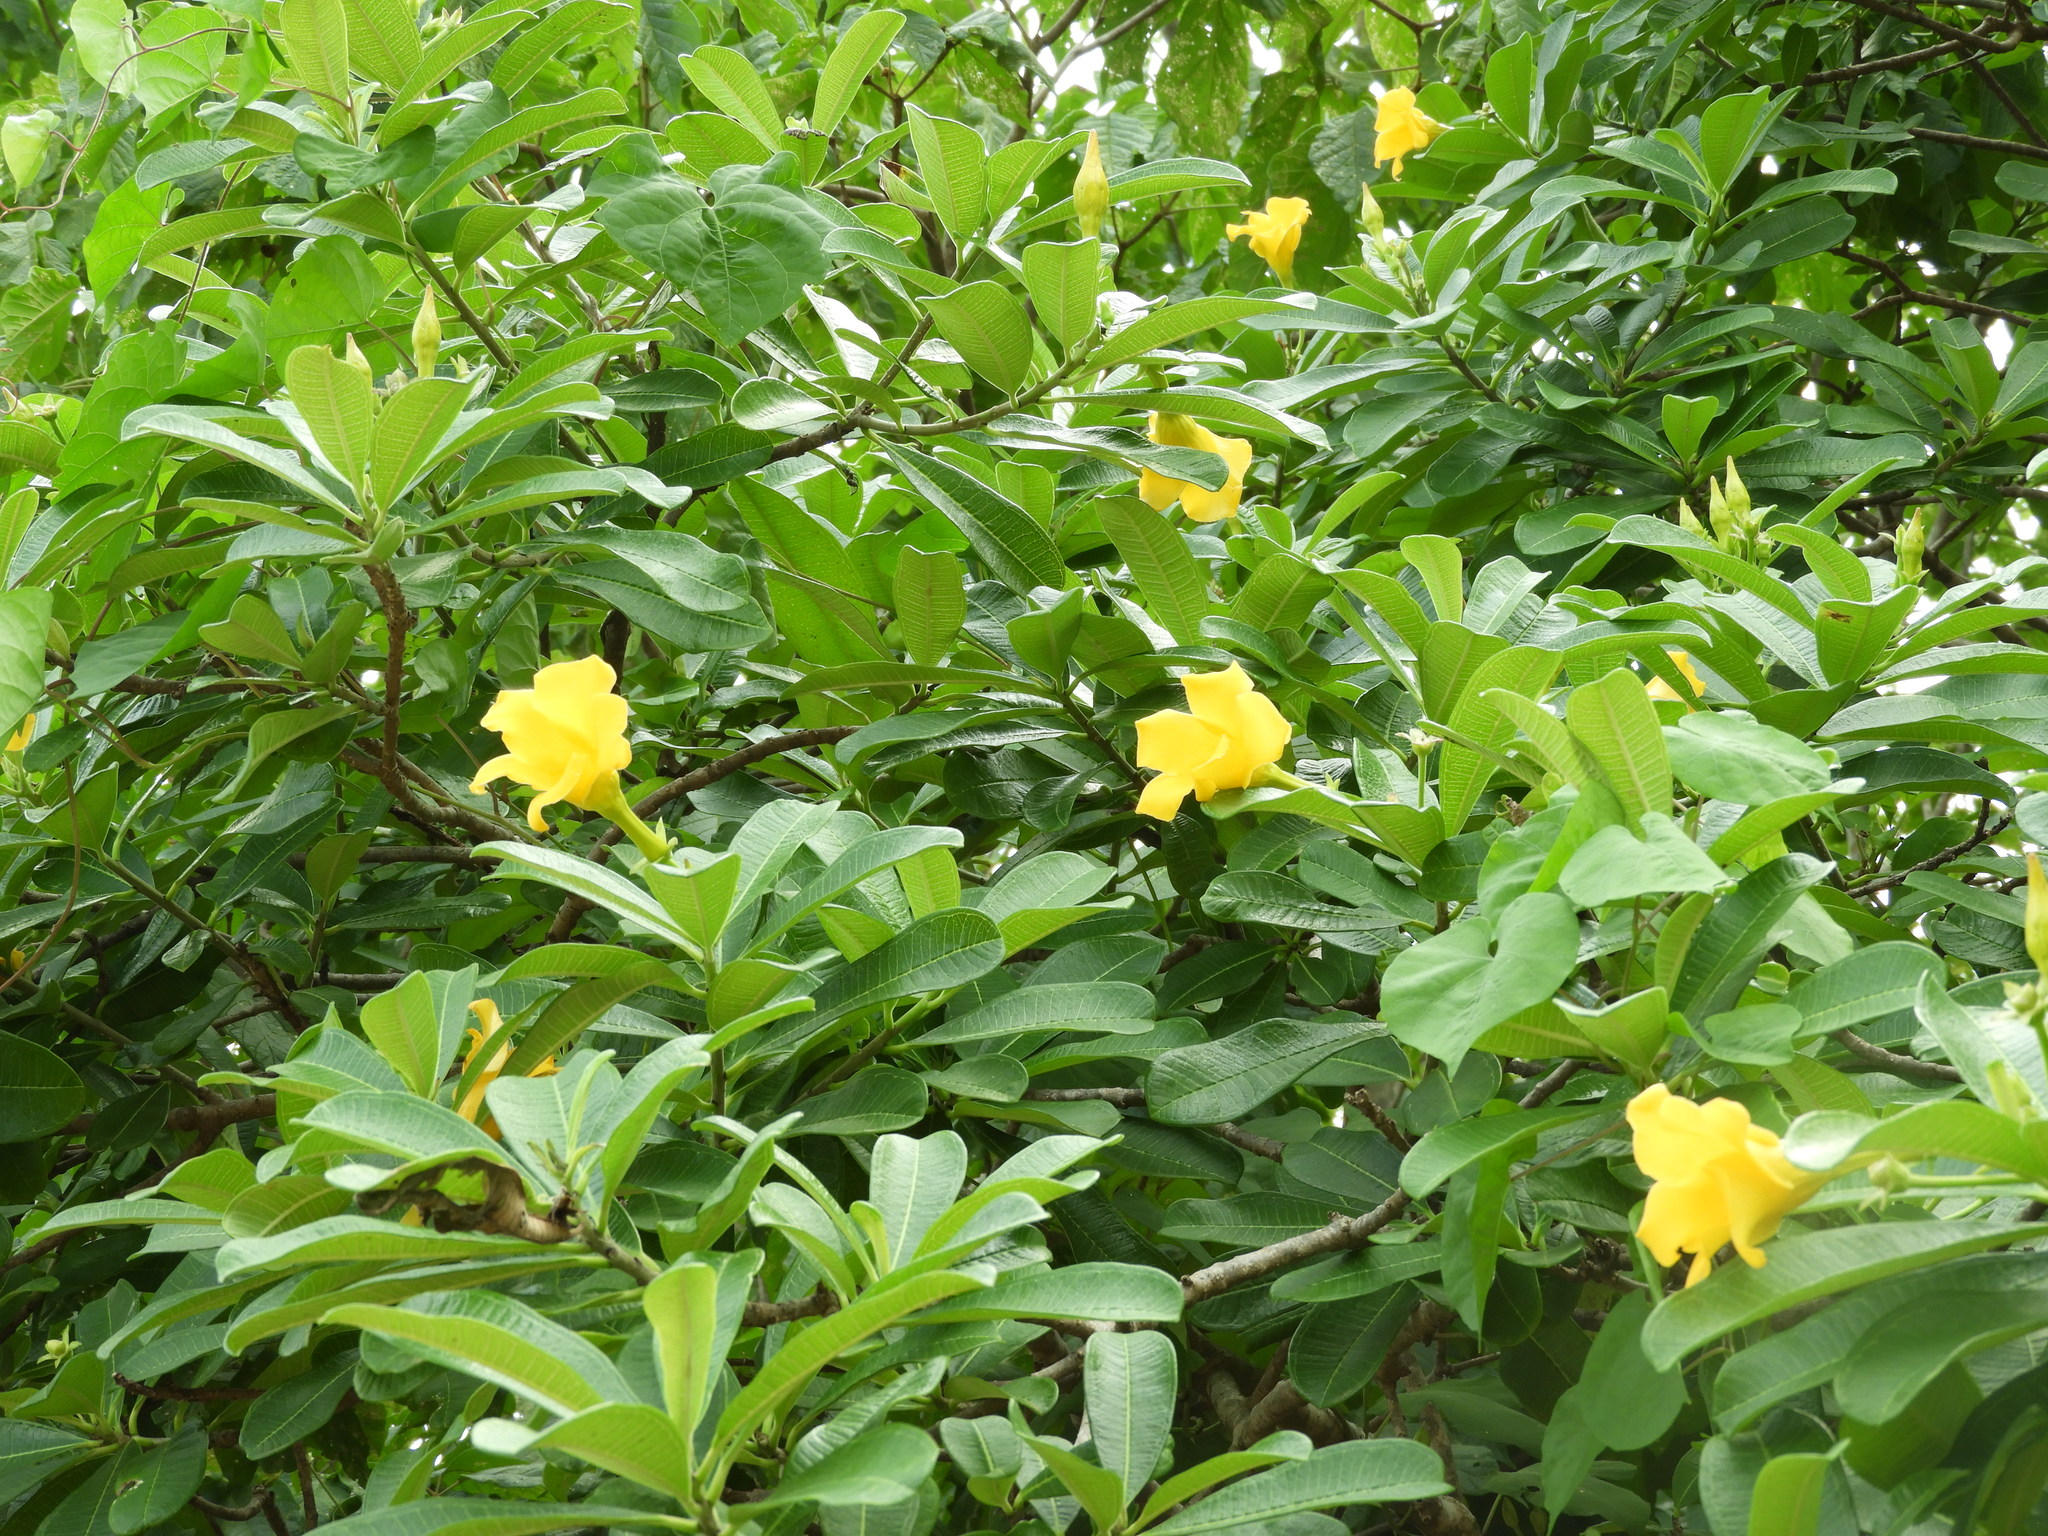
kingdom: Plantae
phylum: Tracheophyta
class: Magnoliopsida
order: Gentianales
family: Apocynaceae
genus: Cascabela
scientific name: Cascabela ovata
